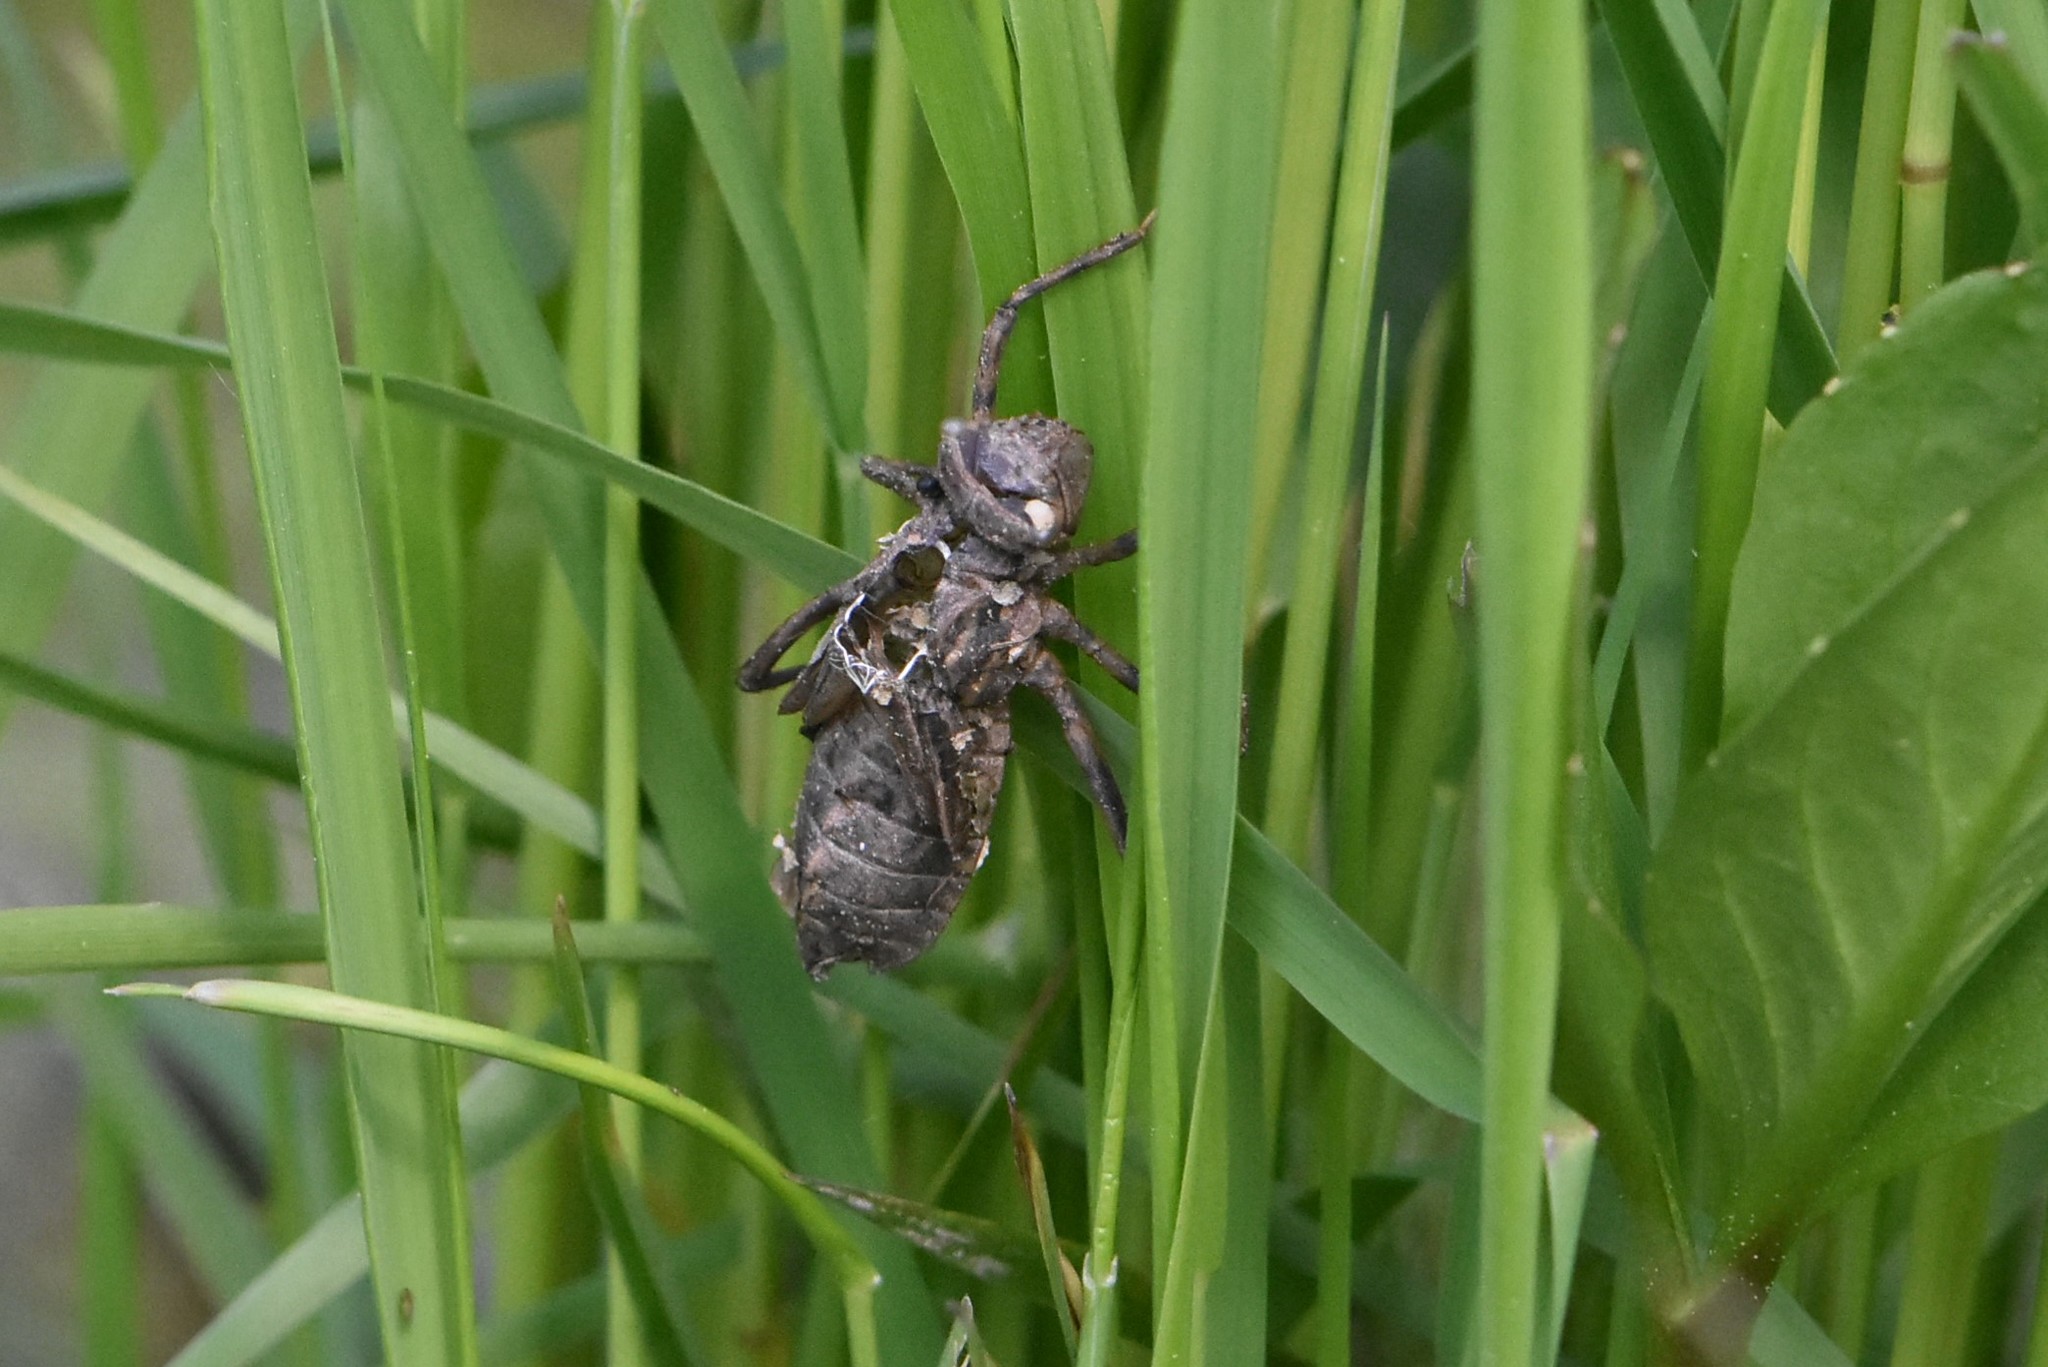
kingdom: Animalia
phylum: Arthropoda
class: Insecta
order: Odonata
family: Corduliidae
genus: Cordulia
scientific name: Cordulia aenea
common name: Downy emerald
